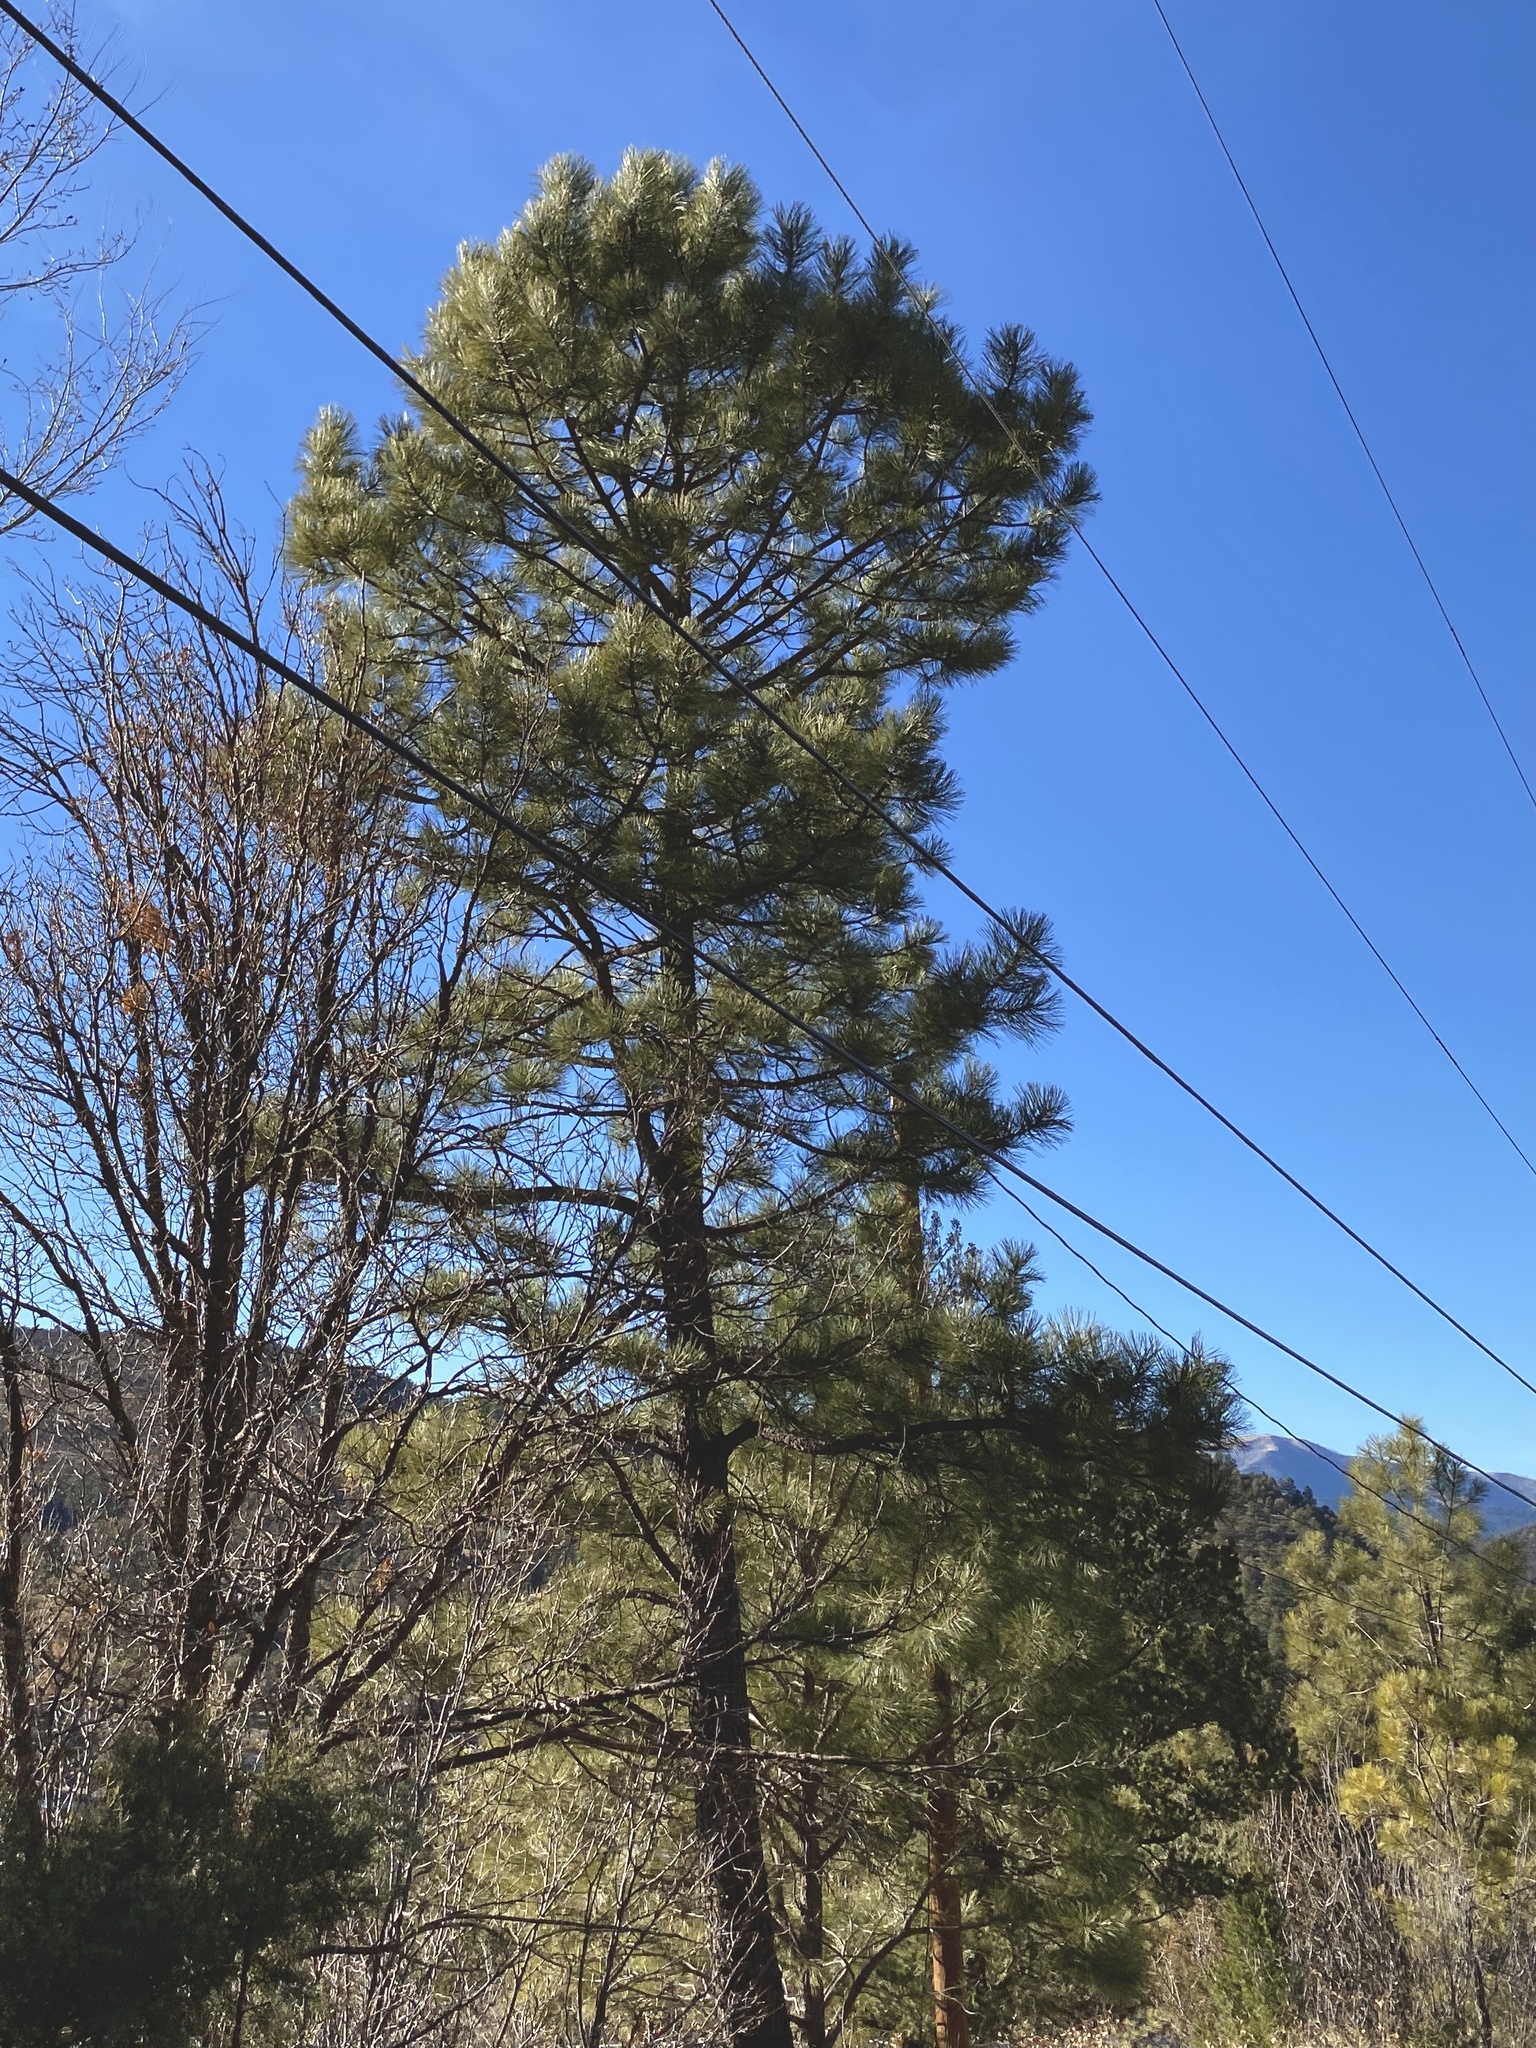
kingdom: Plantae
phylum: Tracheophyta
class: Pinopsida
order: Pinales
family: Pinaceae
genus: Pinus
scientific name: Pinus ponderosa
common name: Western yellow-pine
